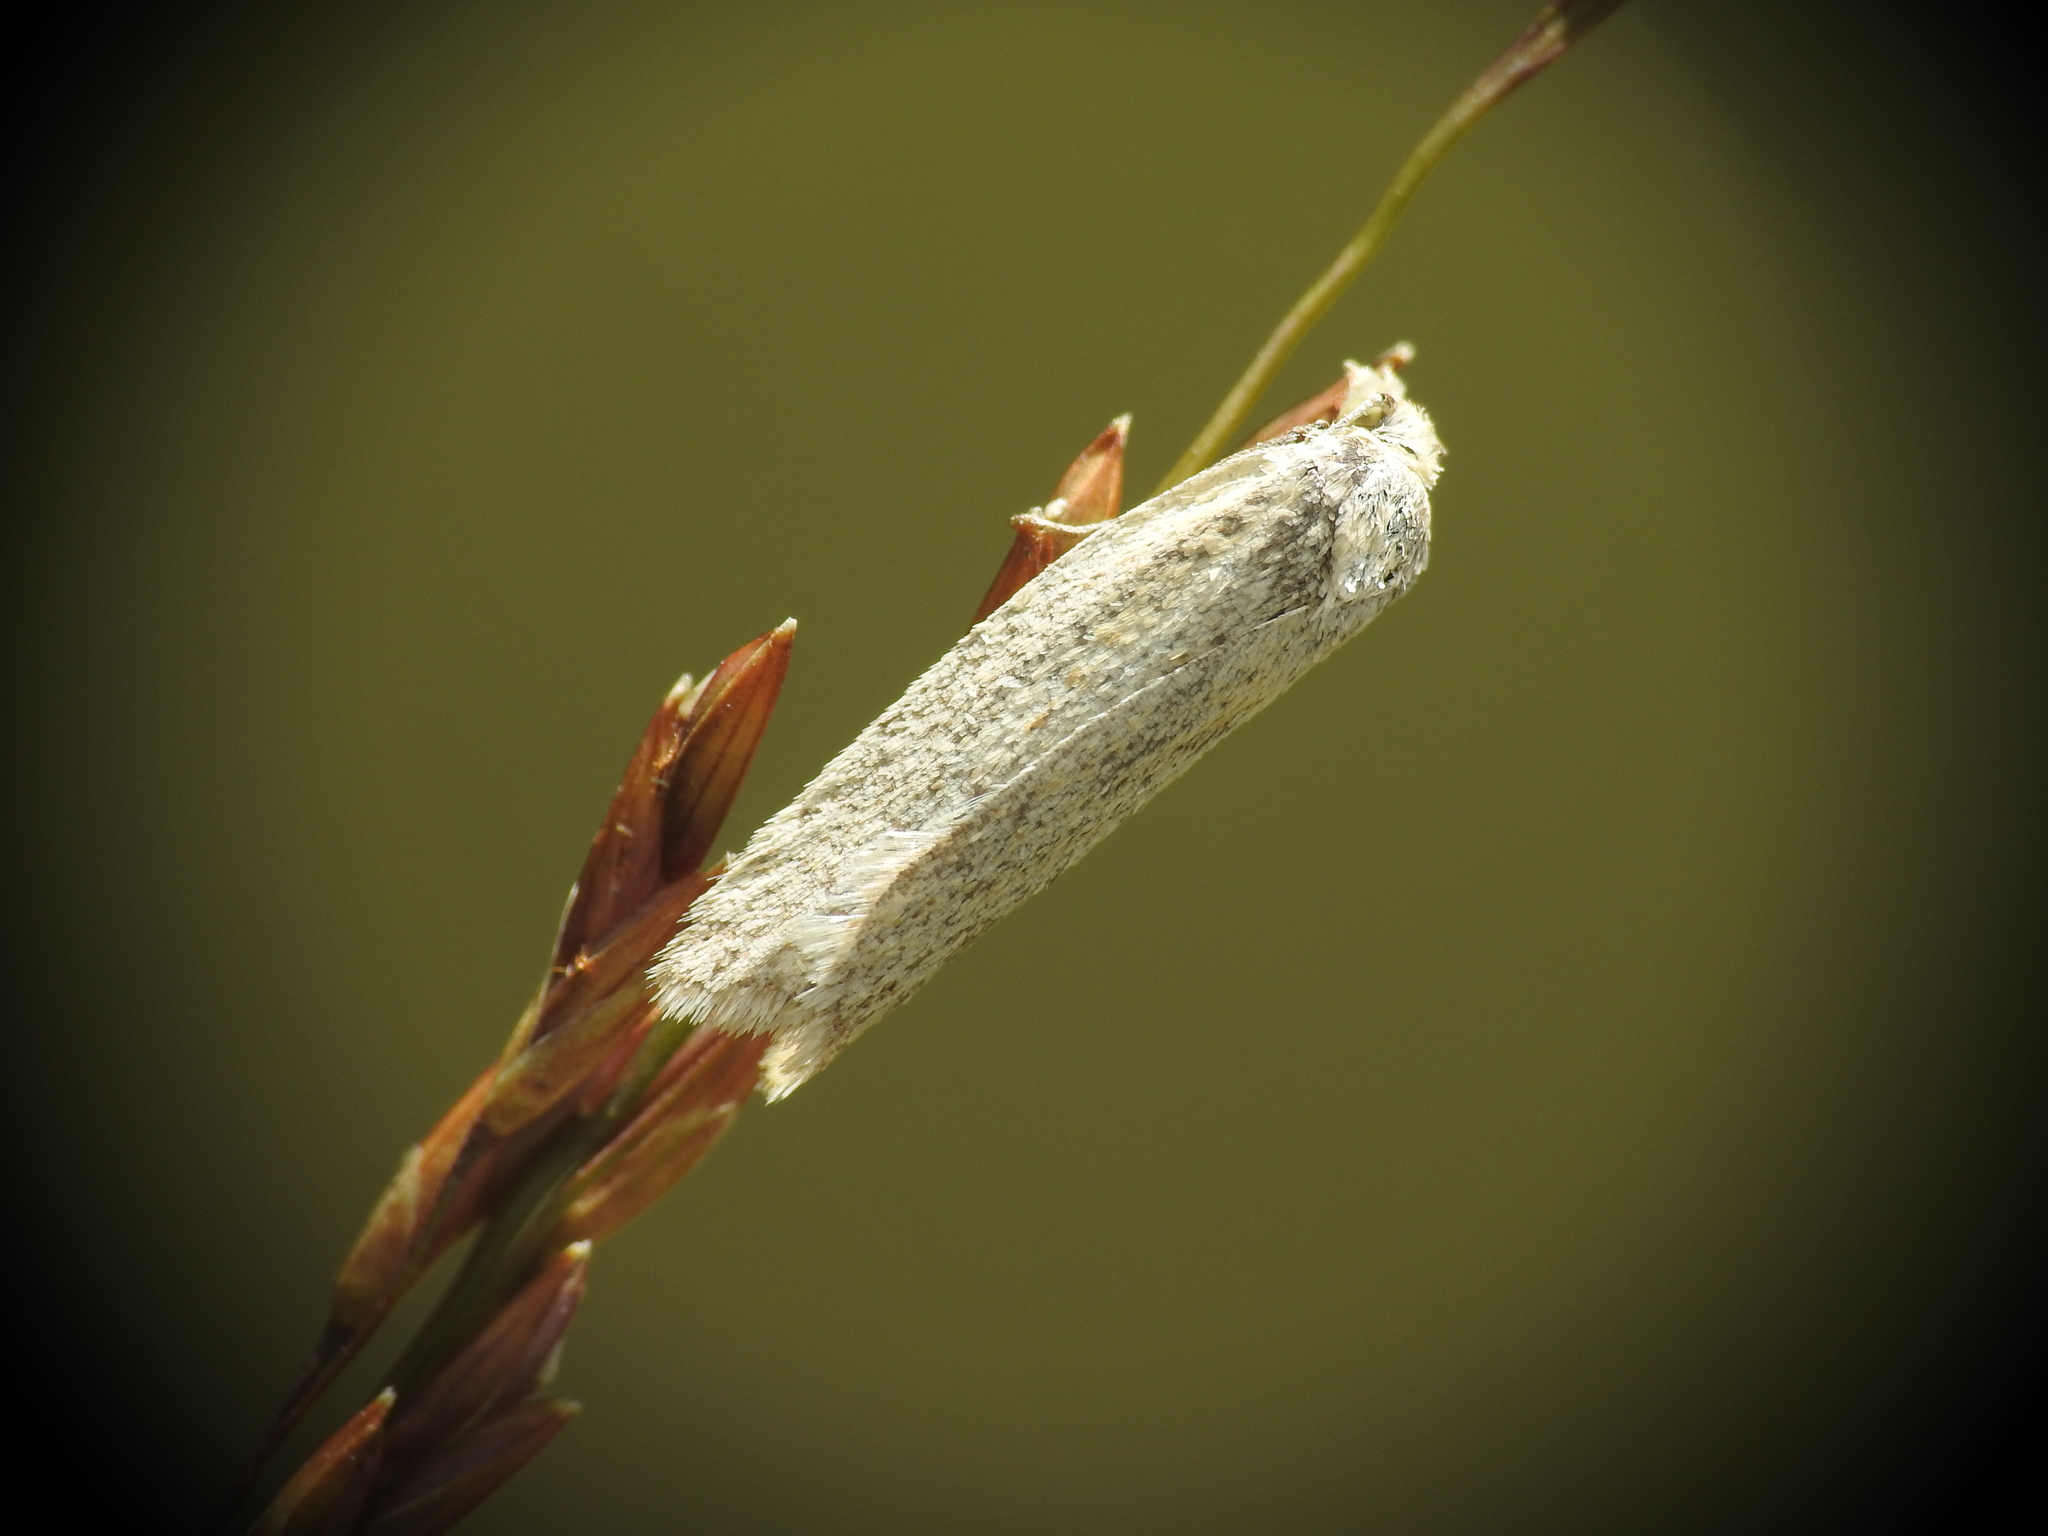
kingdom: Animalia
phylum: Arthropoda
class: Insecta
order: Lepidoptera
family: Tortricidae
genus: Eana
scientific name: Eana argentana
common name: Silver shade
